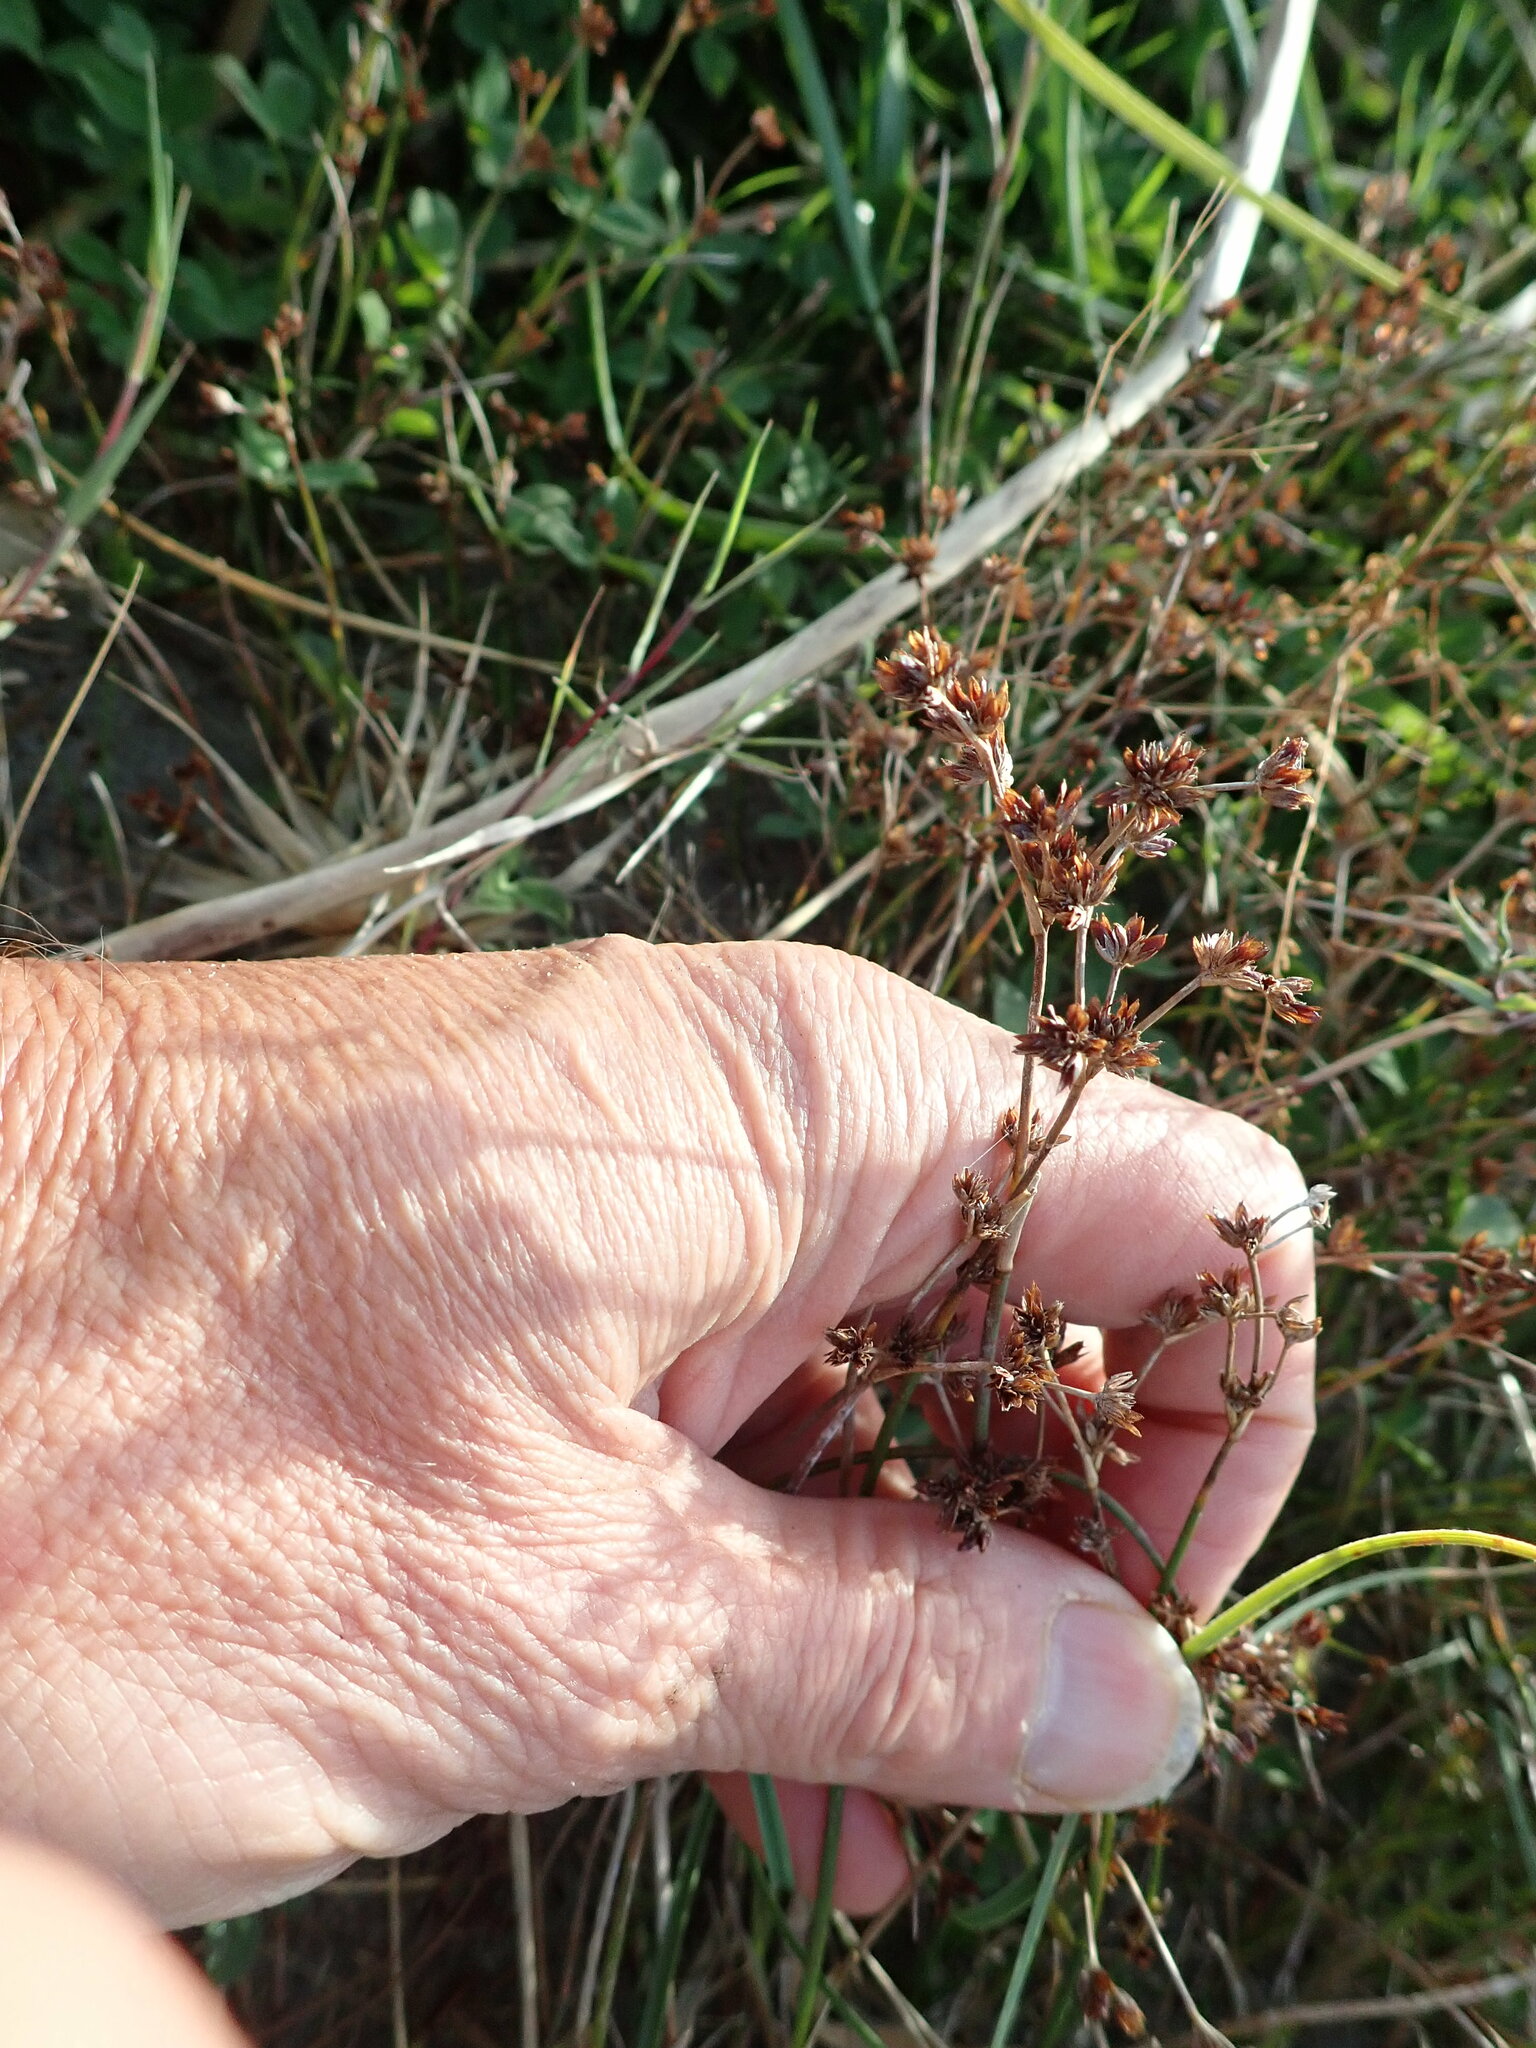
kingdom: Plantae
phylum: Tracheophyta
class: Liliopsida
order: Poales
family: Juncaceae
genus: Juncus
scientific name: Juncus articulatus
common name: Jointed rush
